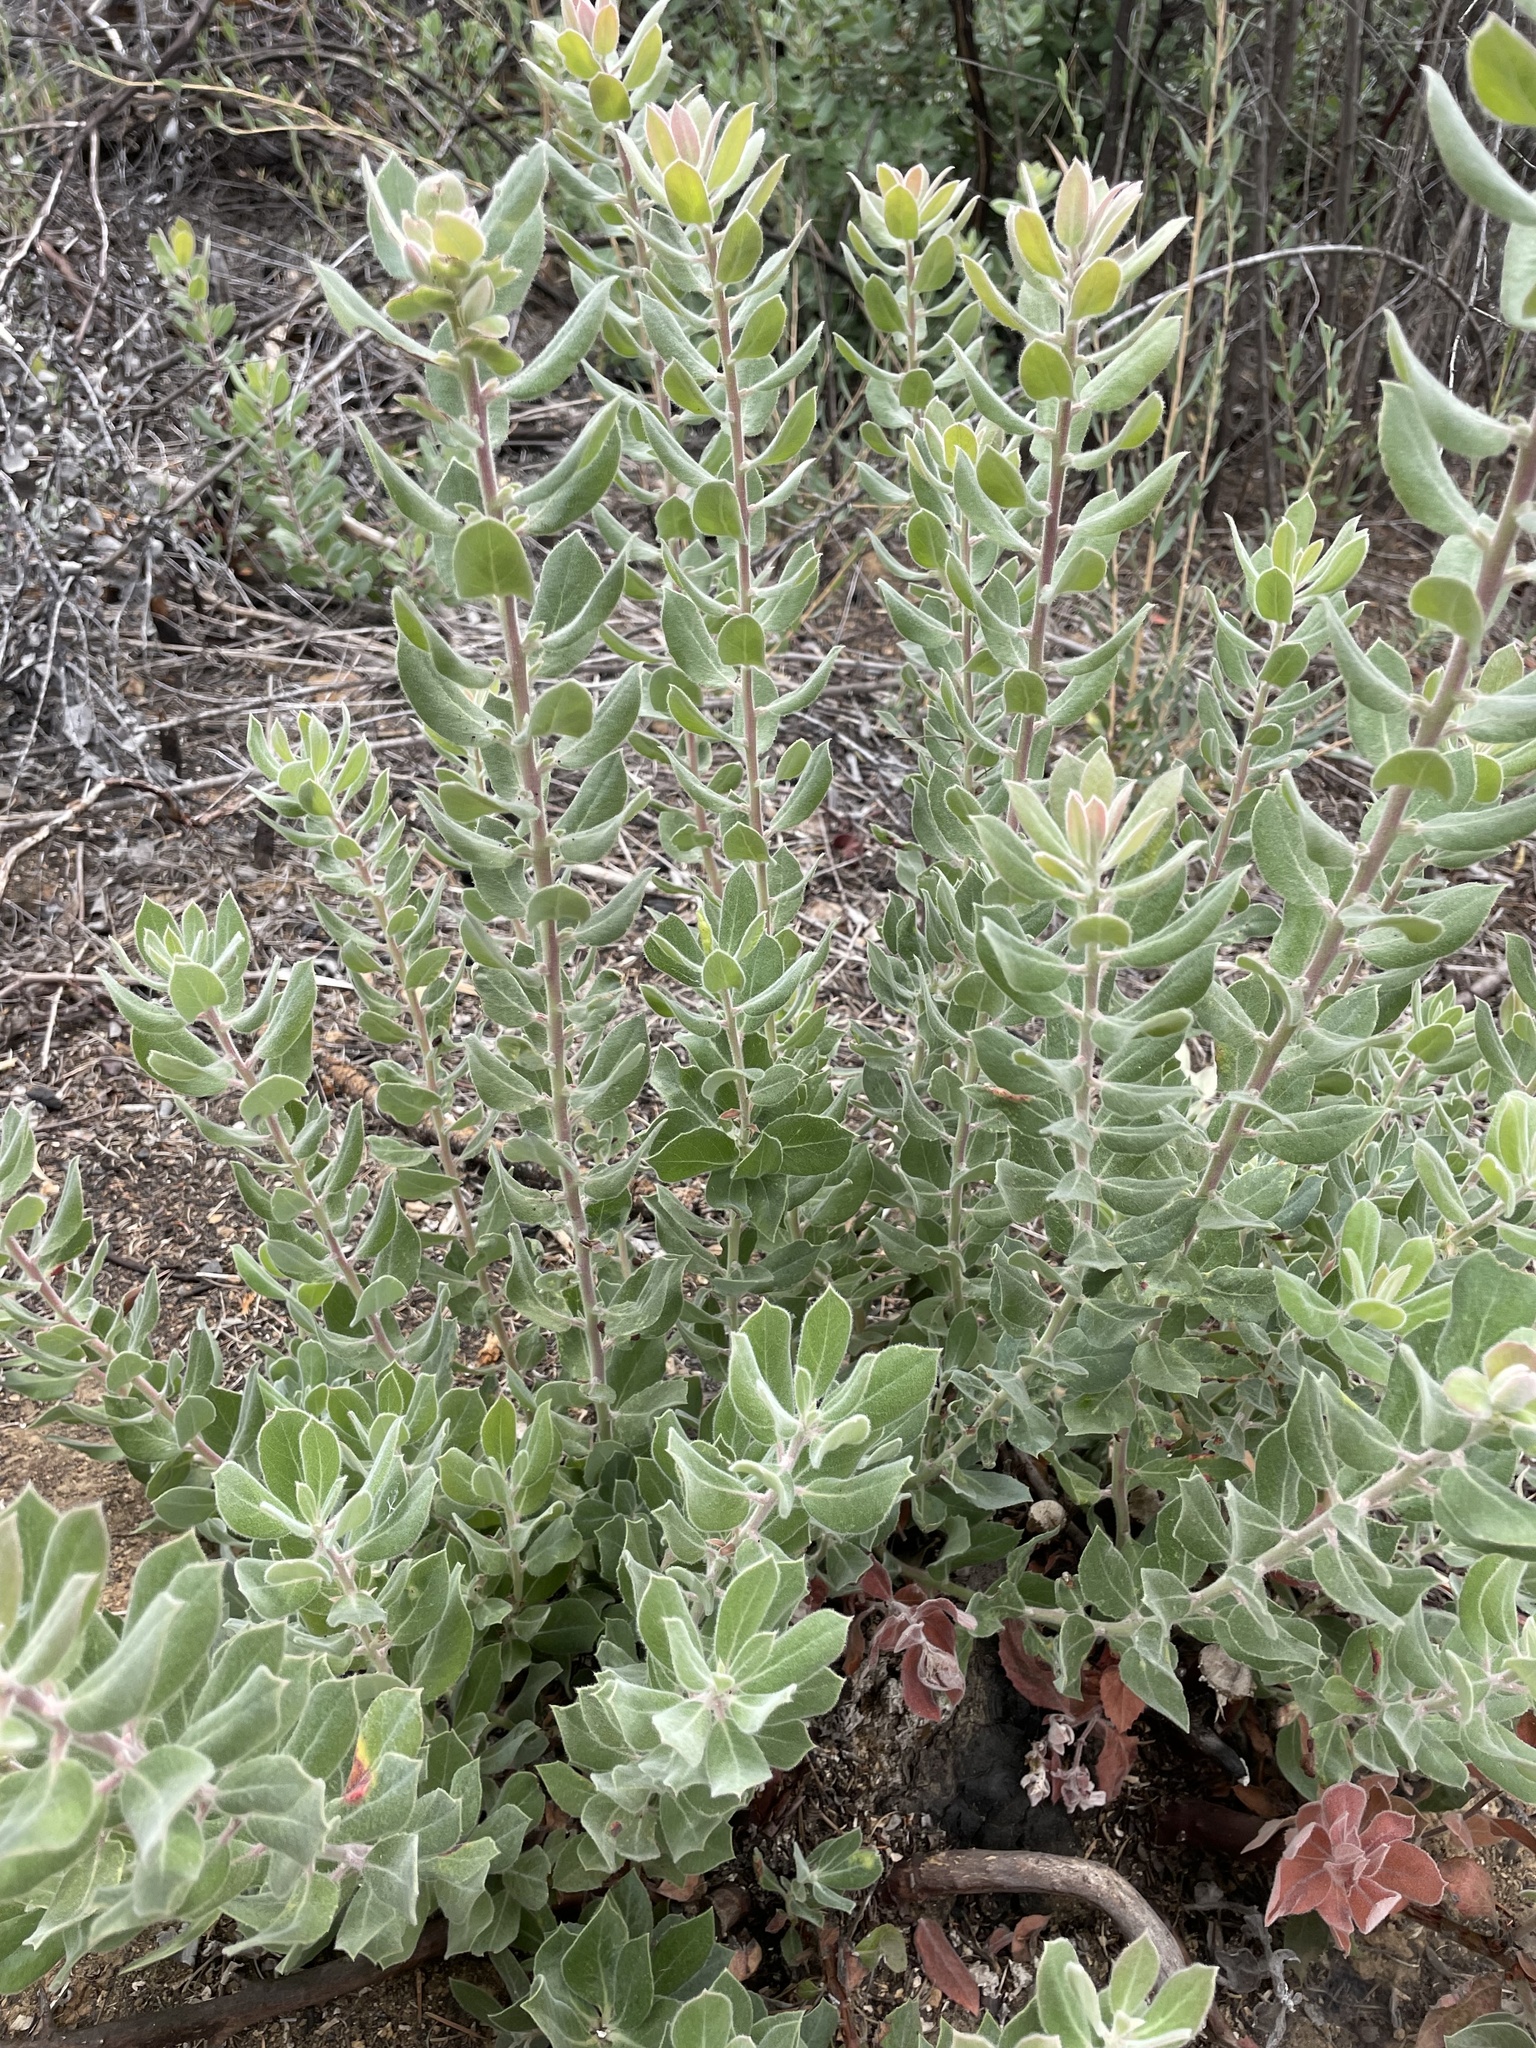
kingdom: Plantae
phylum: Tracheophyta
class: Magnoliopsida
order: Ericales
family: Ericaceae
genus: Arctostaphylos
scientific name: Arctostaphylos crustacea
